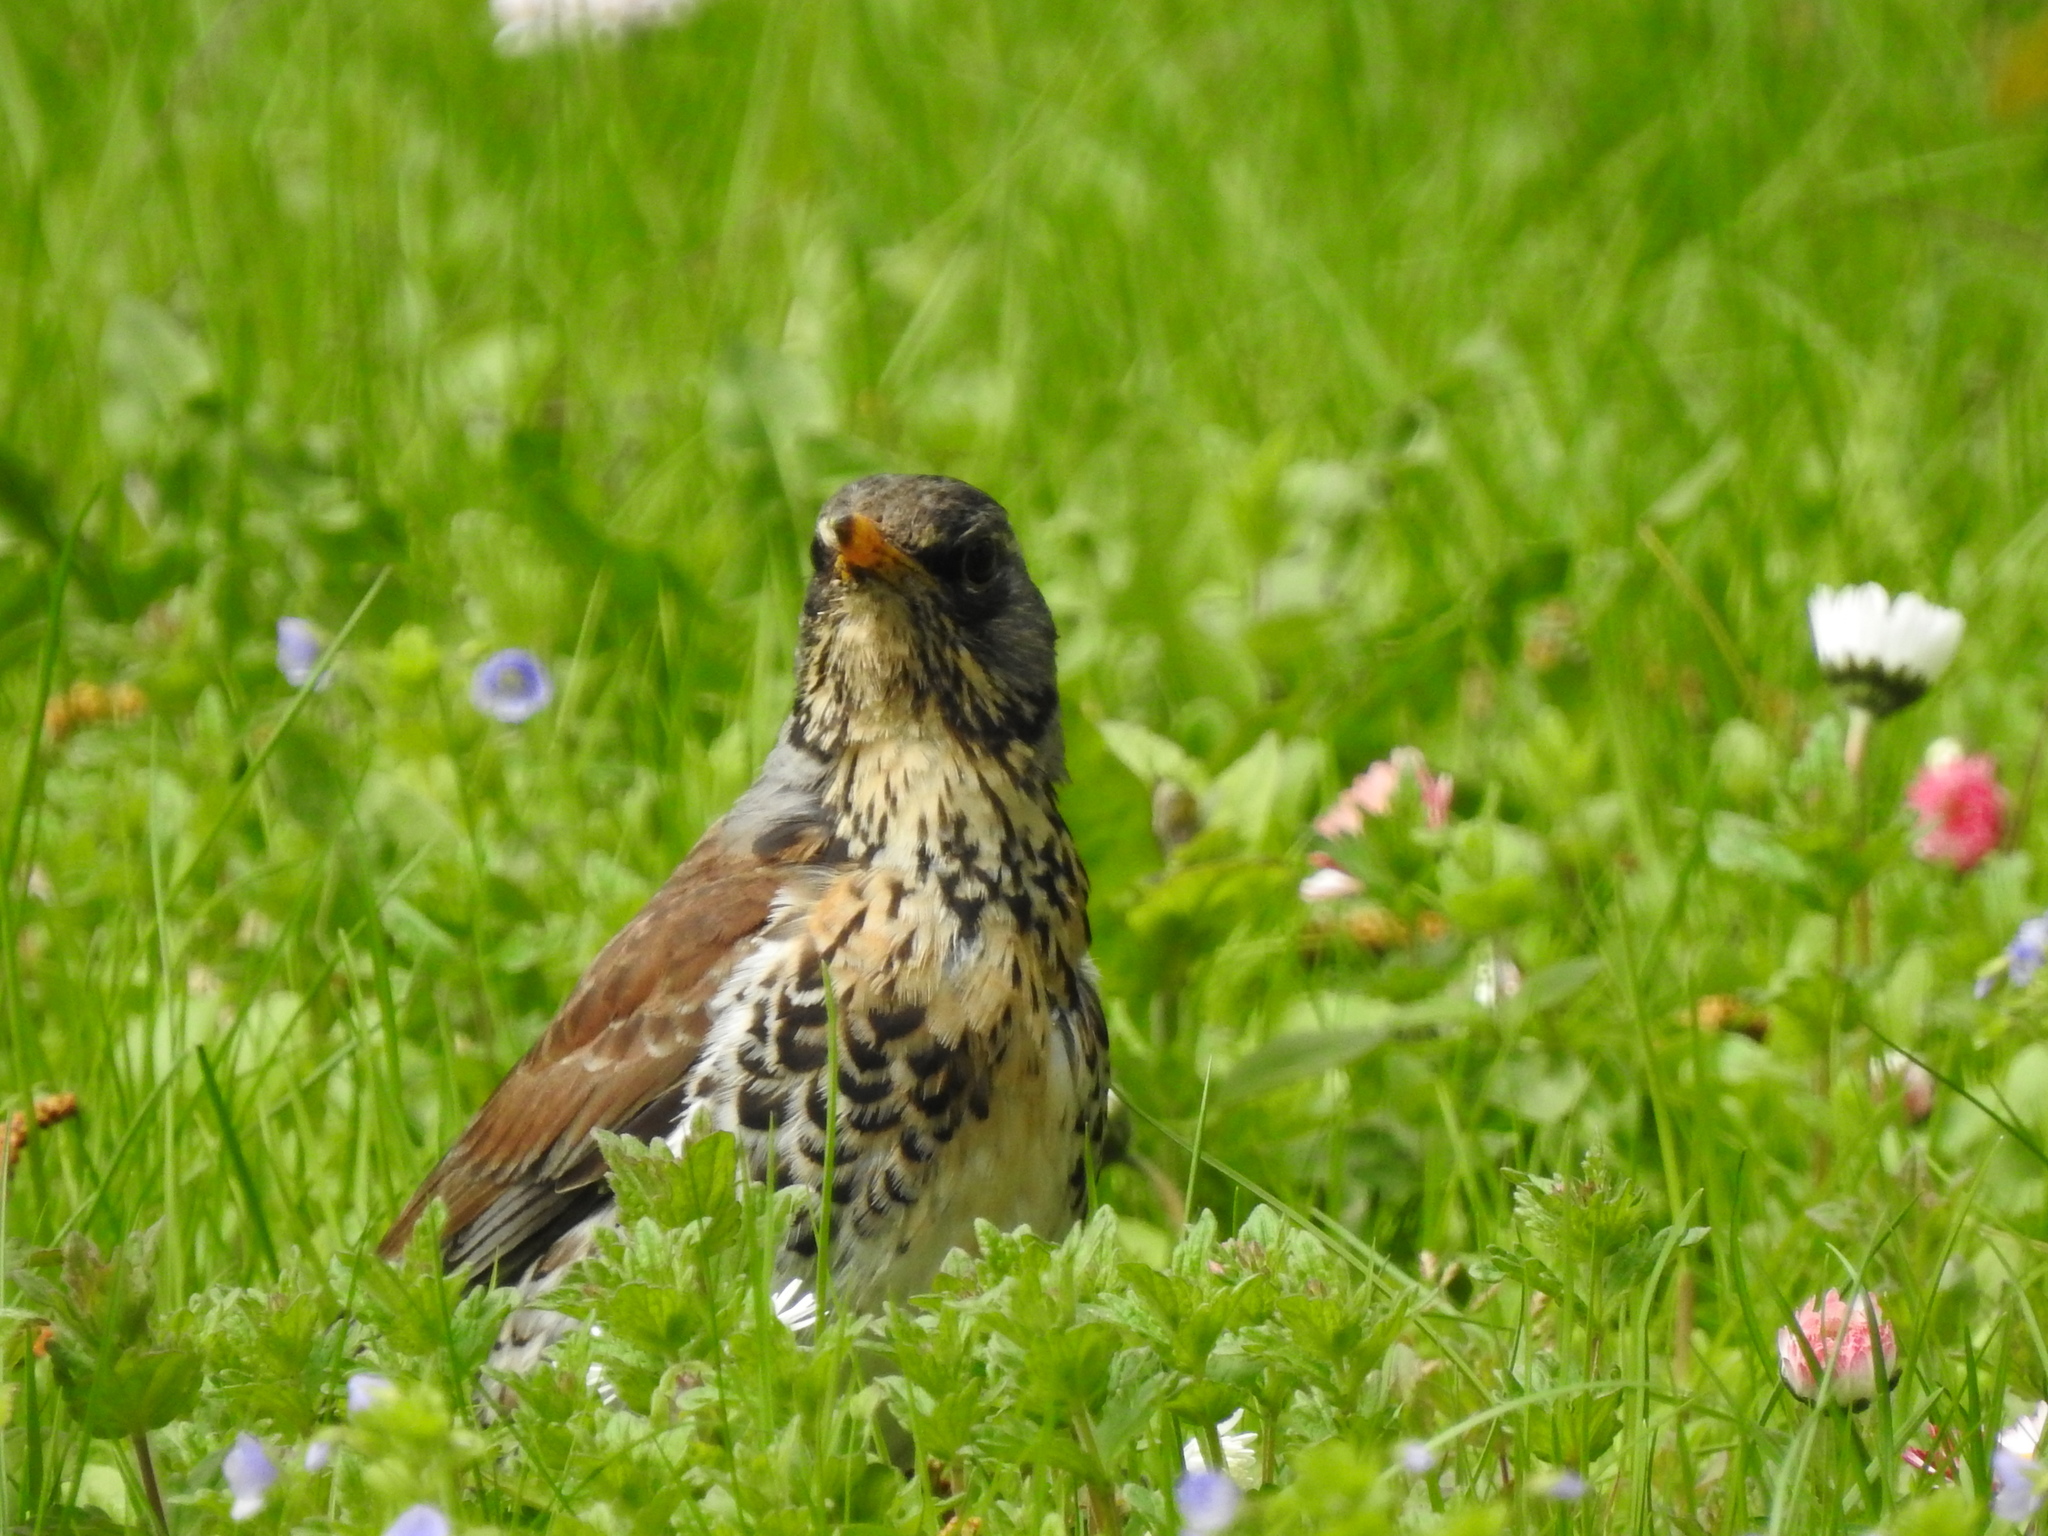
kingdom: Animalia
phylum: Chordata
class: Aves
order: Passeriformes
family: Turdidae
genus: Turdus
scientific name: Turdus pilaris
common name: Fieldfare
